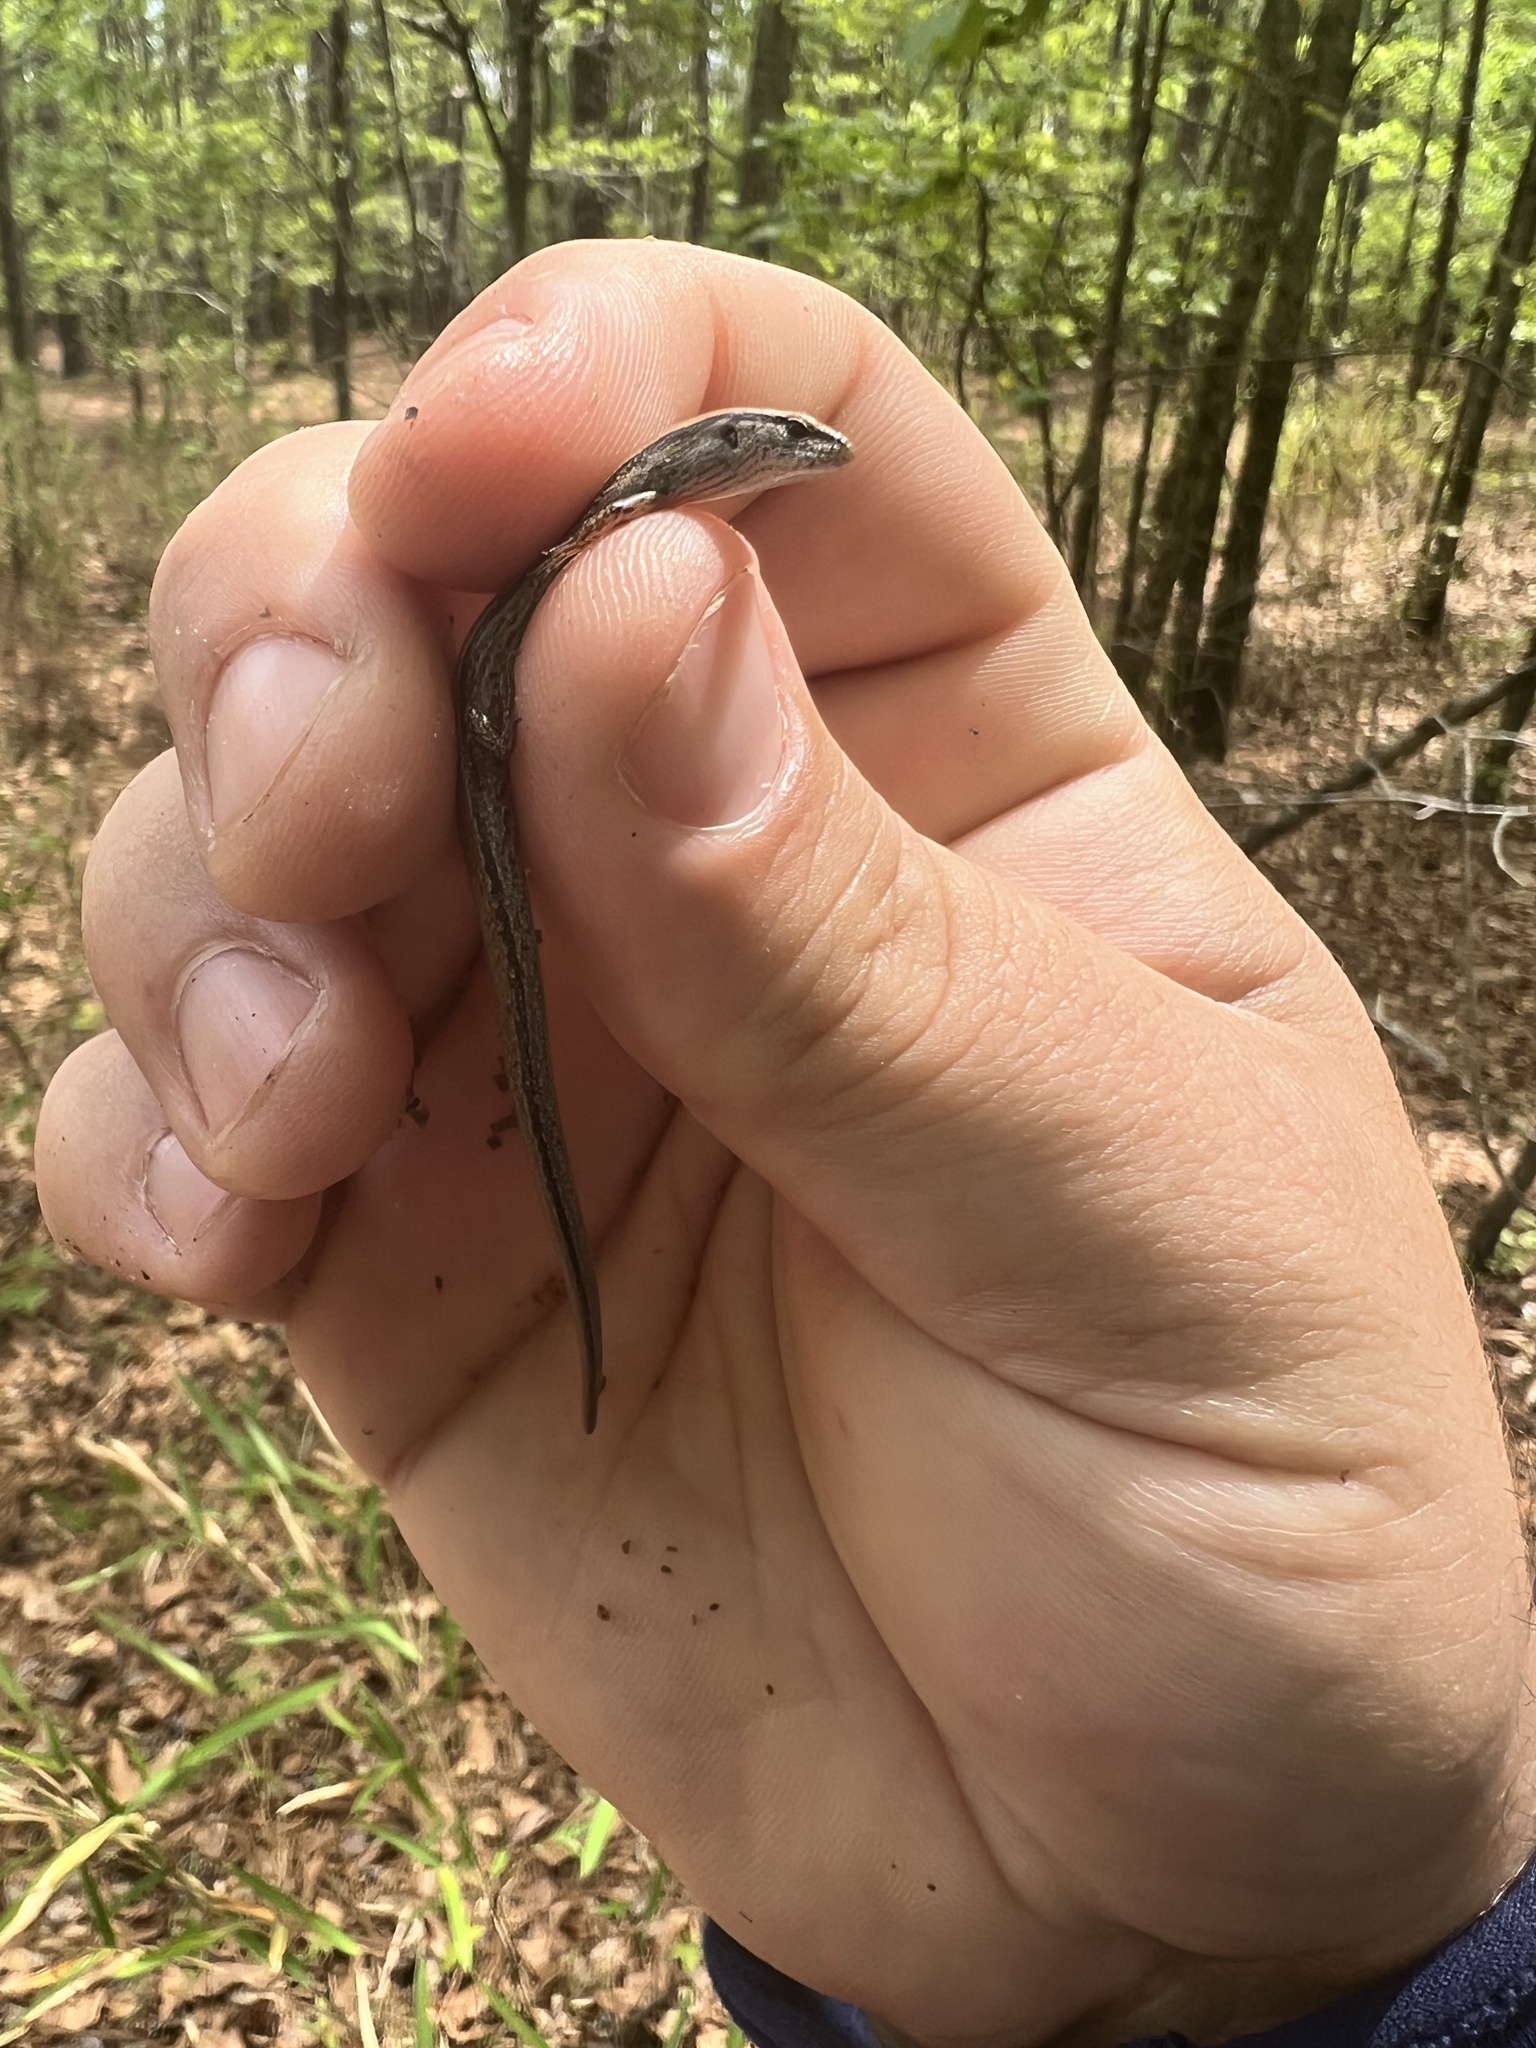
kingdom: Animalia
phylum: Chordata
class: Squamata
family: Scincidae
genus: Scincella
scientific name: Scincella lateralis
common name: Ground skink
